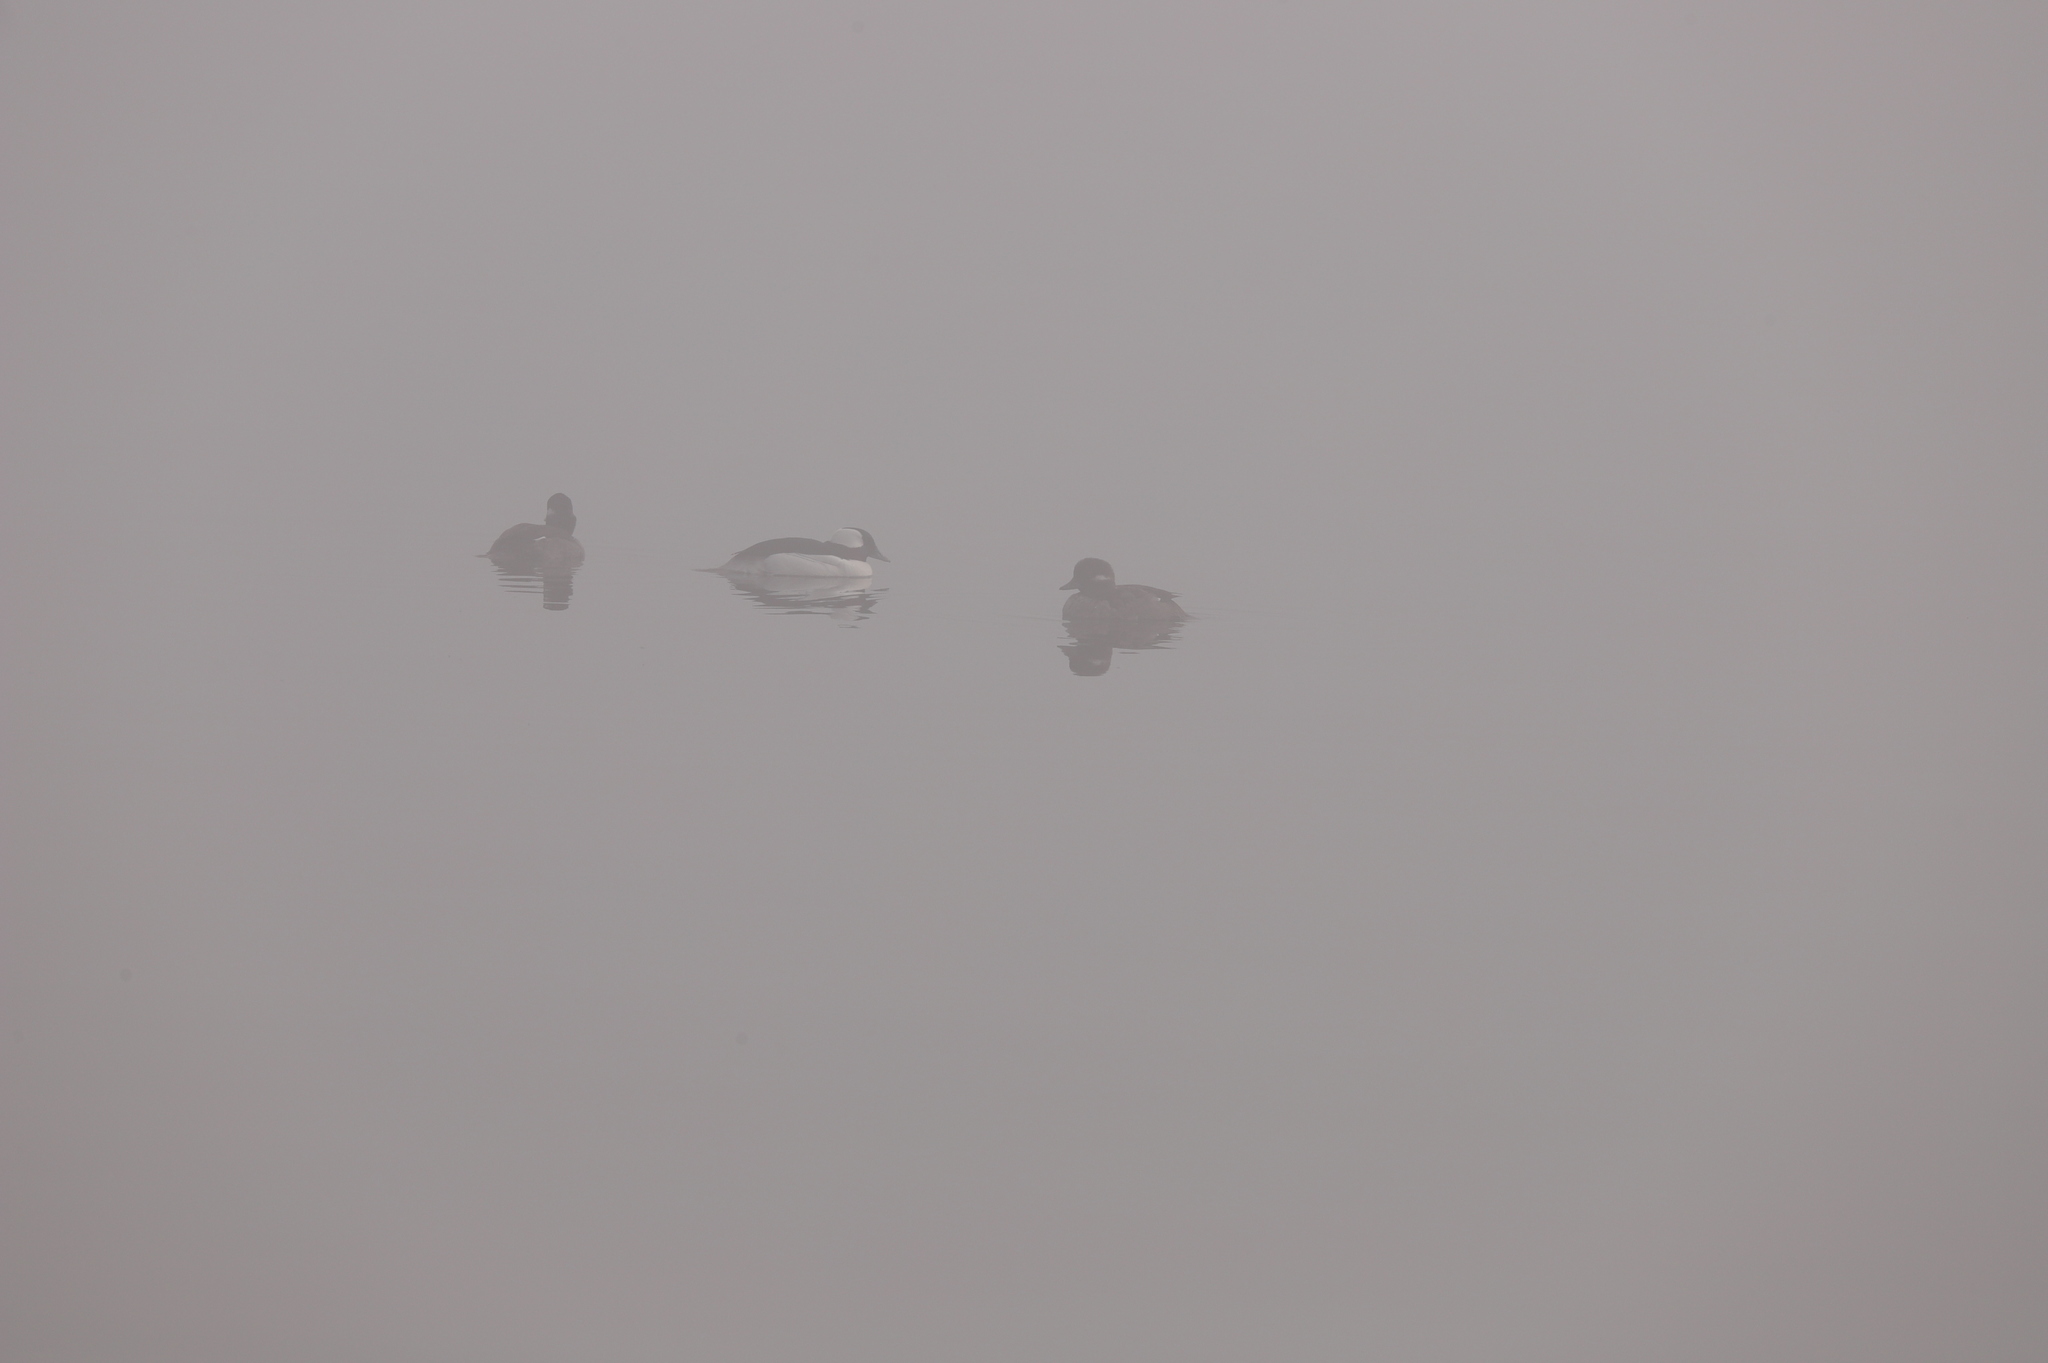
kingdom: Animalia
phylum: Chordata
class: Aves
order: Anseriformes
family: Anatidae
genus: Bucephala
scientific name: Bucephala albeola
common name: Bufflehead
